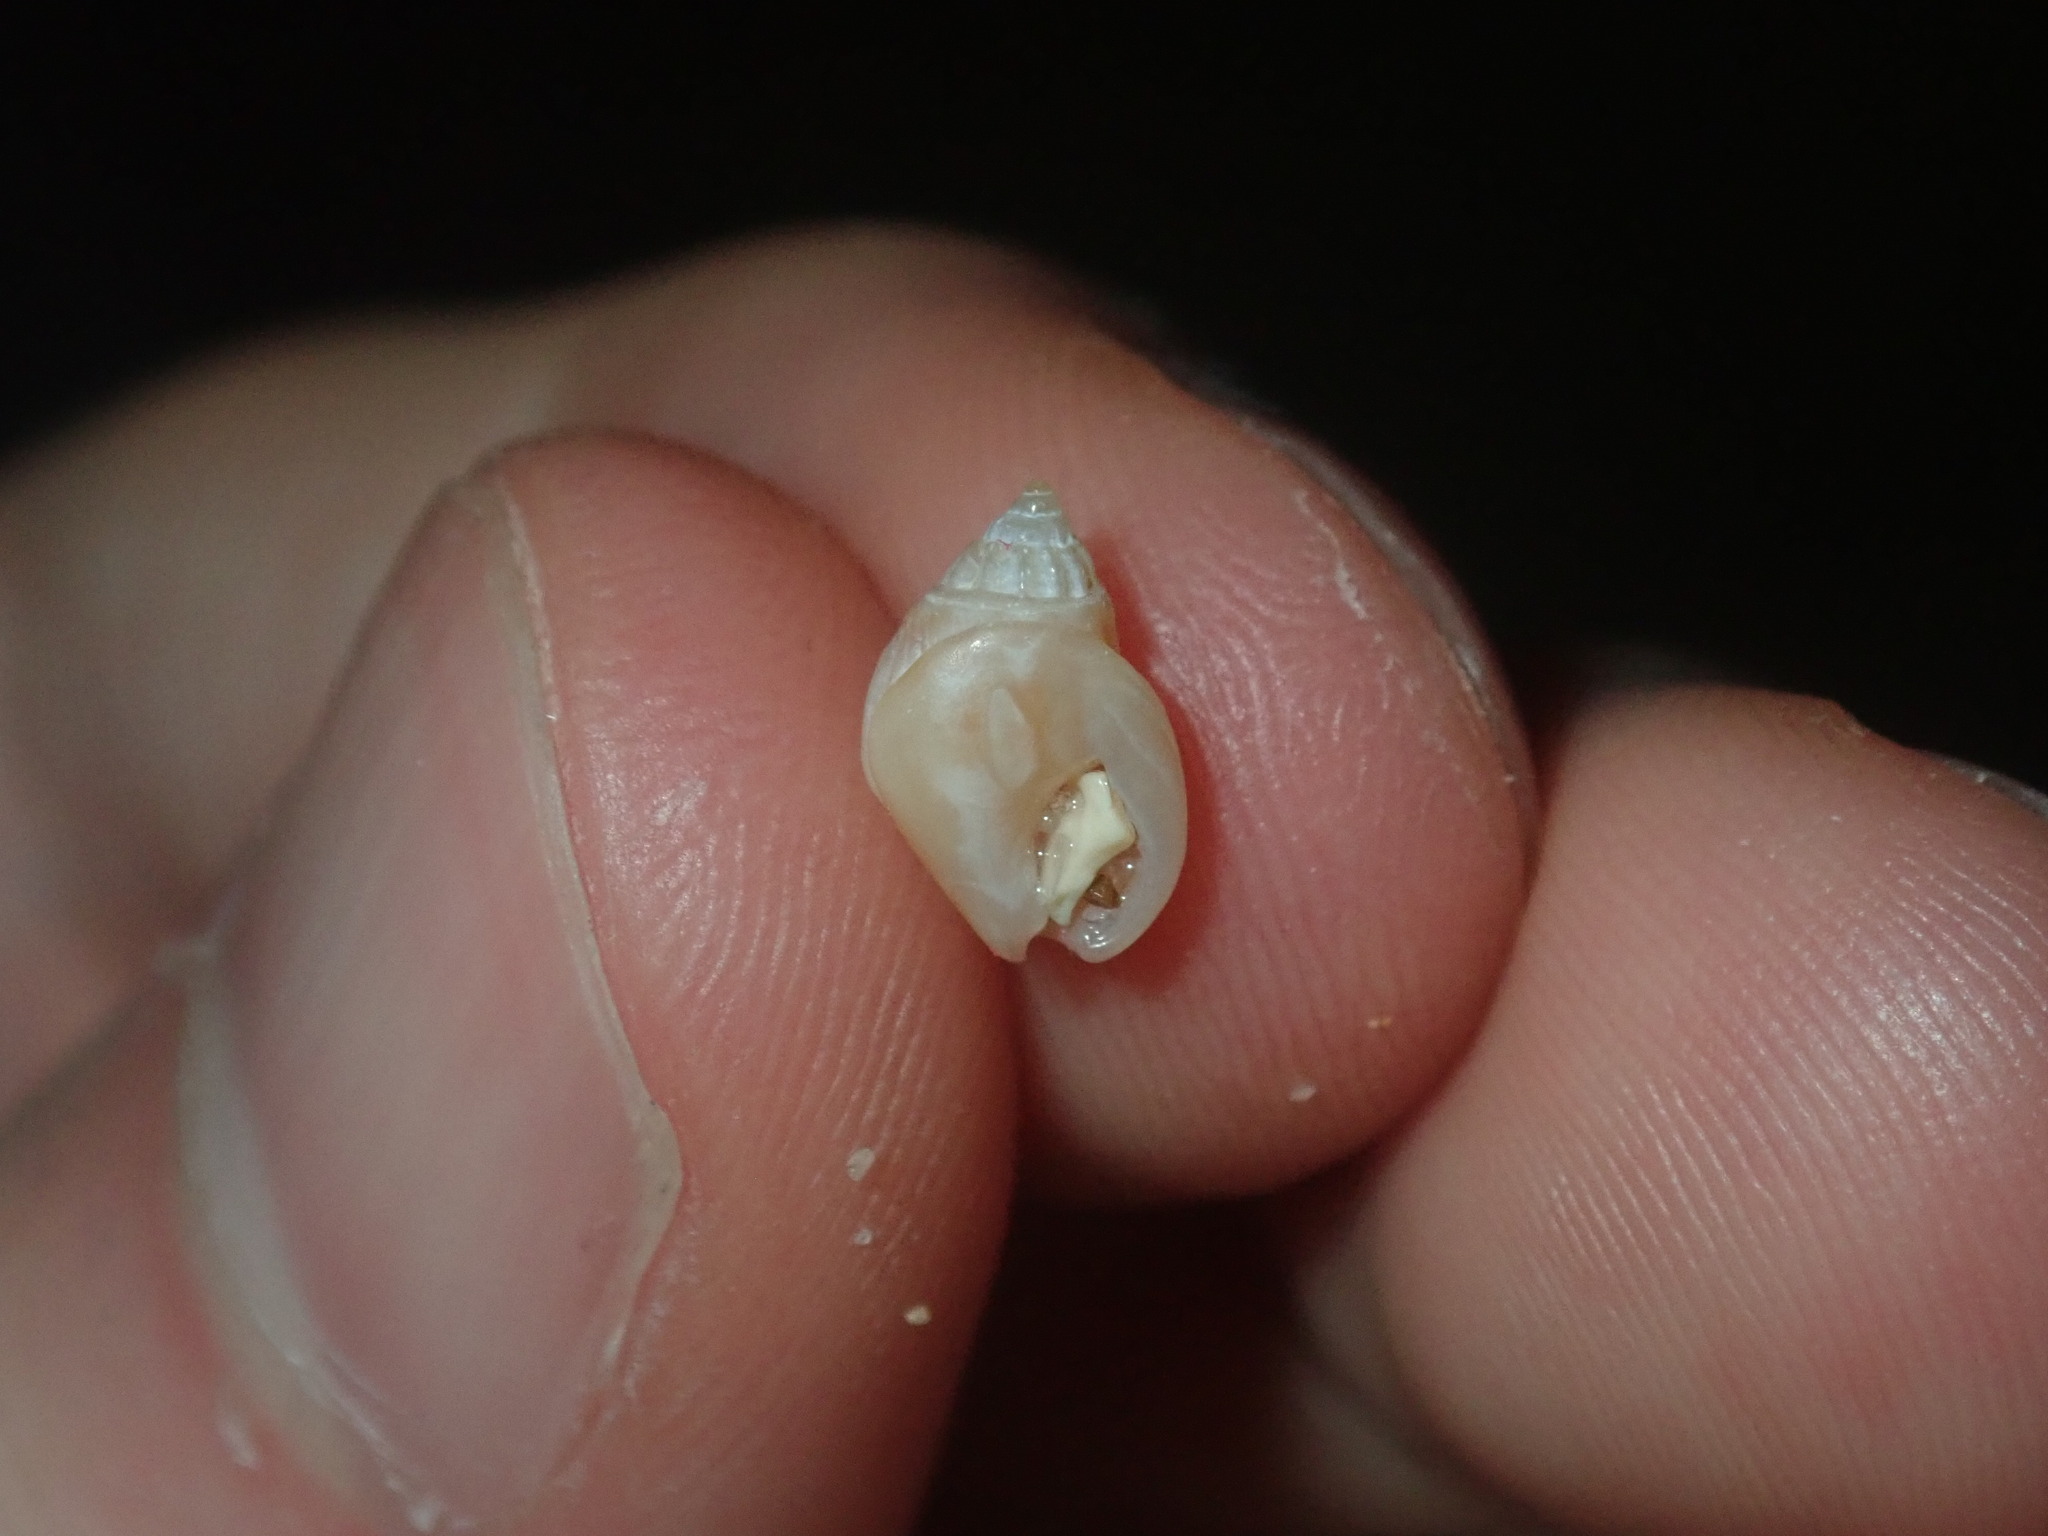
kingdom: Animalia
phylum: Mollusca
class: Gastropoda
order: Neogastropoda
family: Nassariidae
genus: Nassarius
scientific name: Nassarius jonasii
